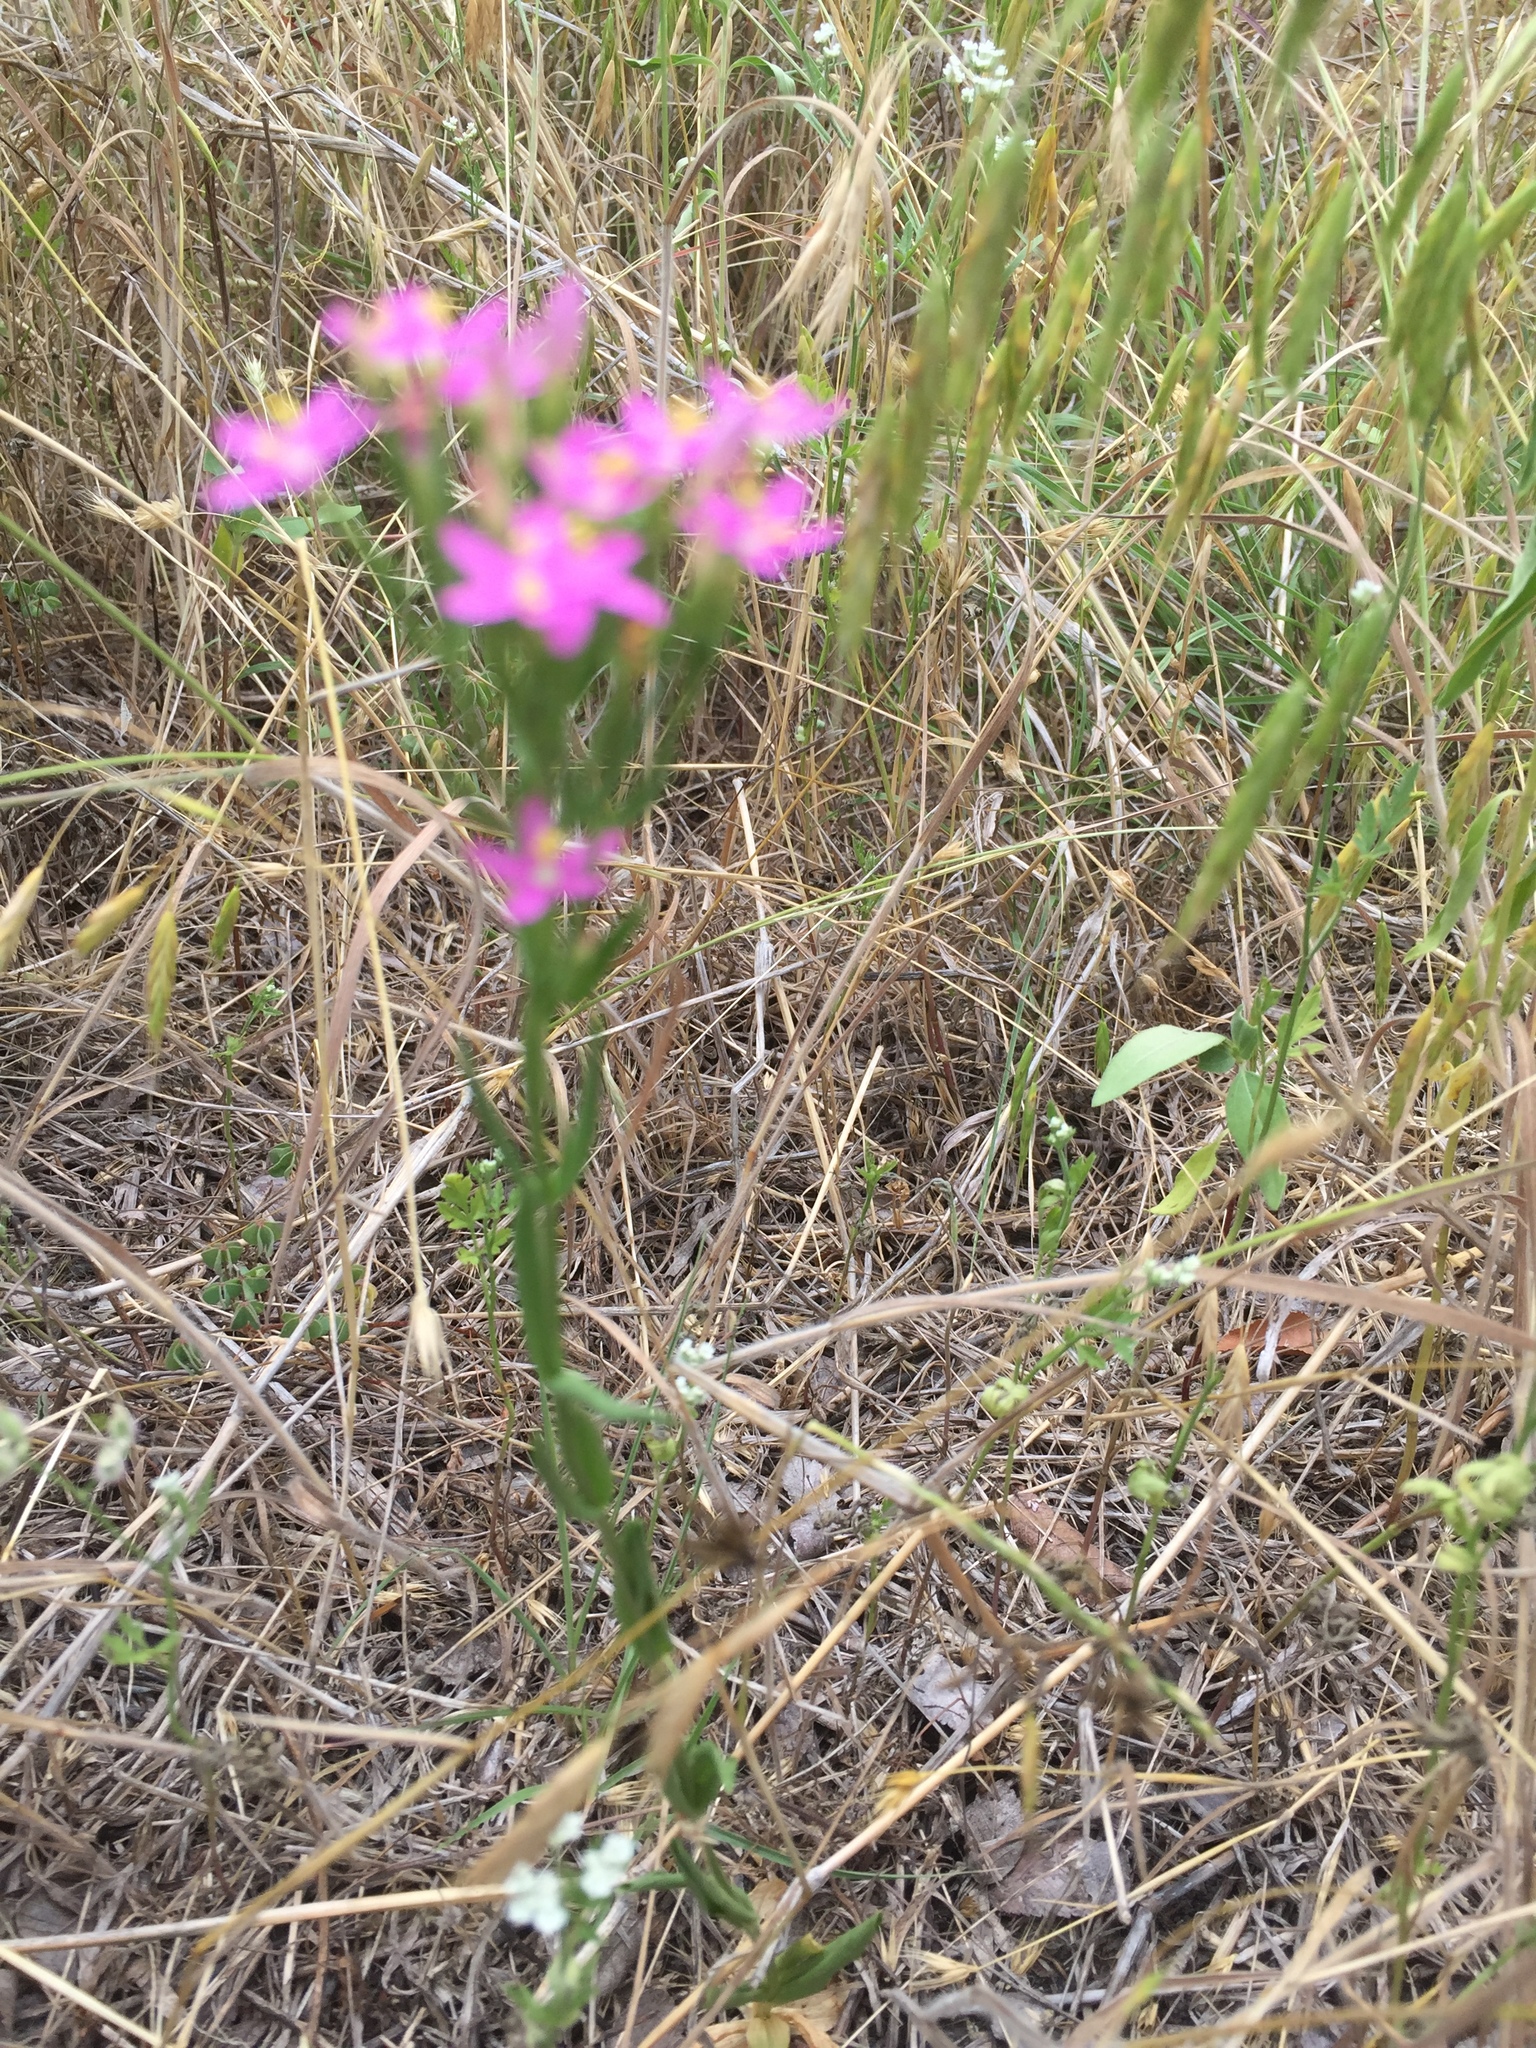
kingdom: Plantae
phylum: Tracheophyta
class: Magnoliopsida
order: Gentianales
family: Gentianaceae
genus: Centaurium
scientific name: Centaurium tenuiflorum
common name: Slender centaury
